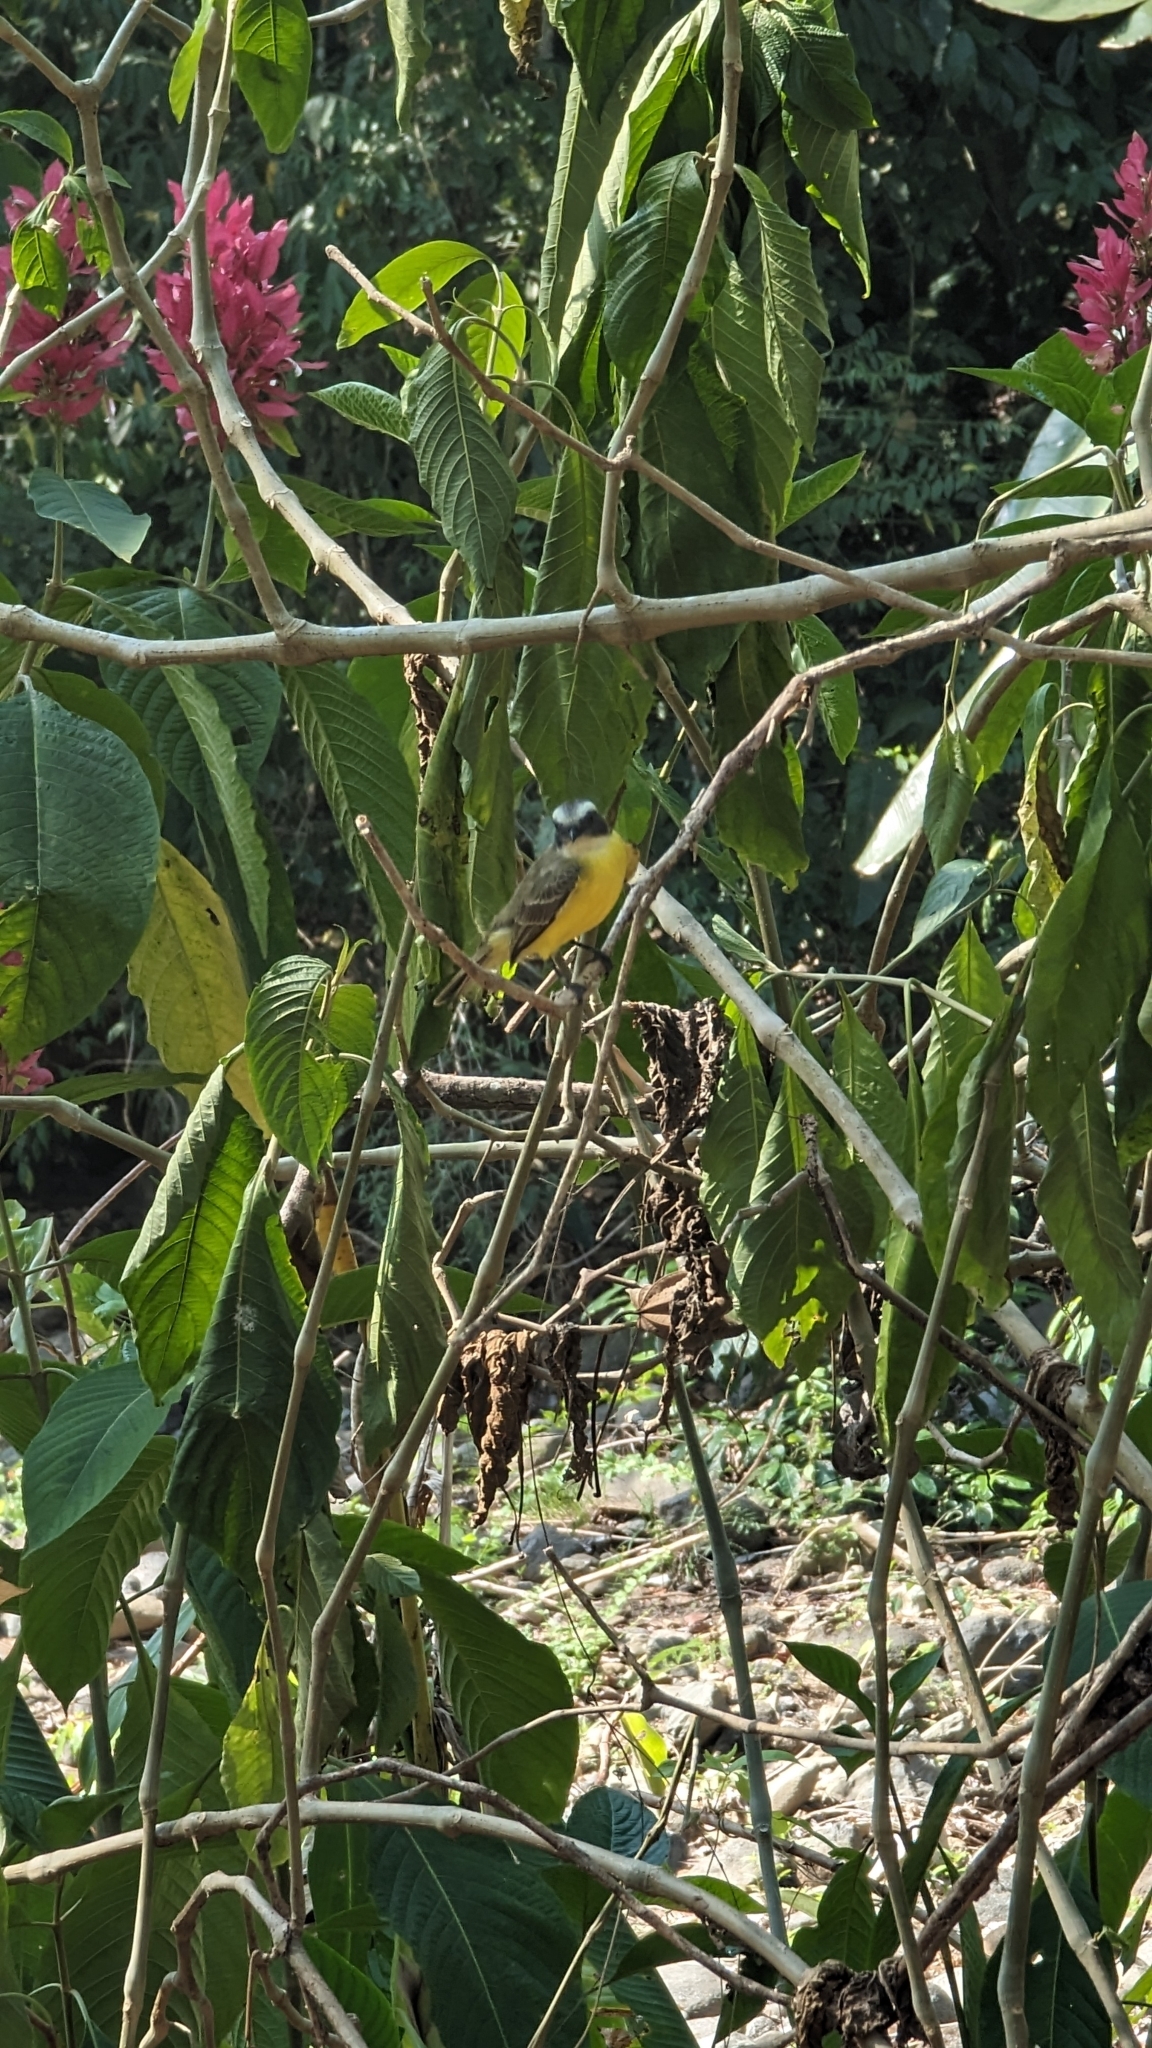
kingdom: Animalia
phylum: Chordata
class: Aves
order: Passeriformes
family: Tyrannidae
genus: Myiozetetes
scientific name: Myiozetetes similis
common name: Social flycatcher
